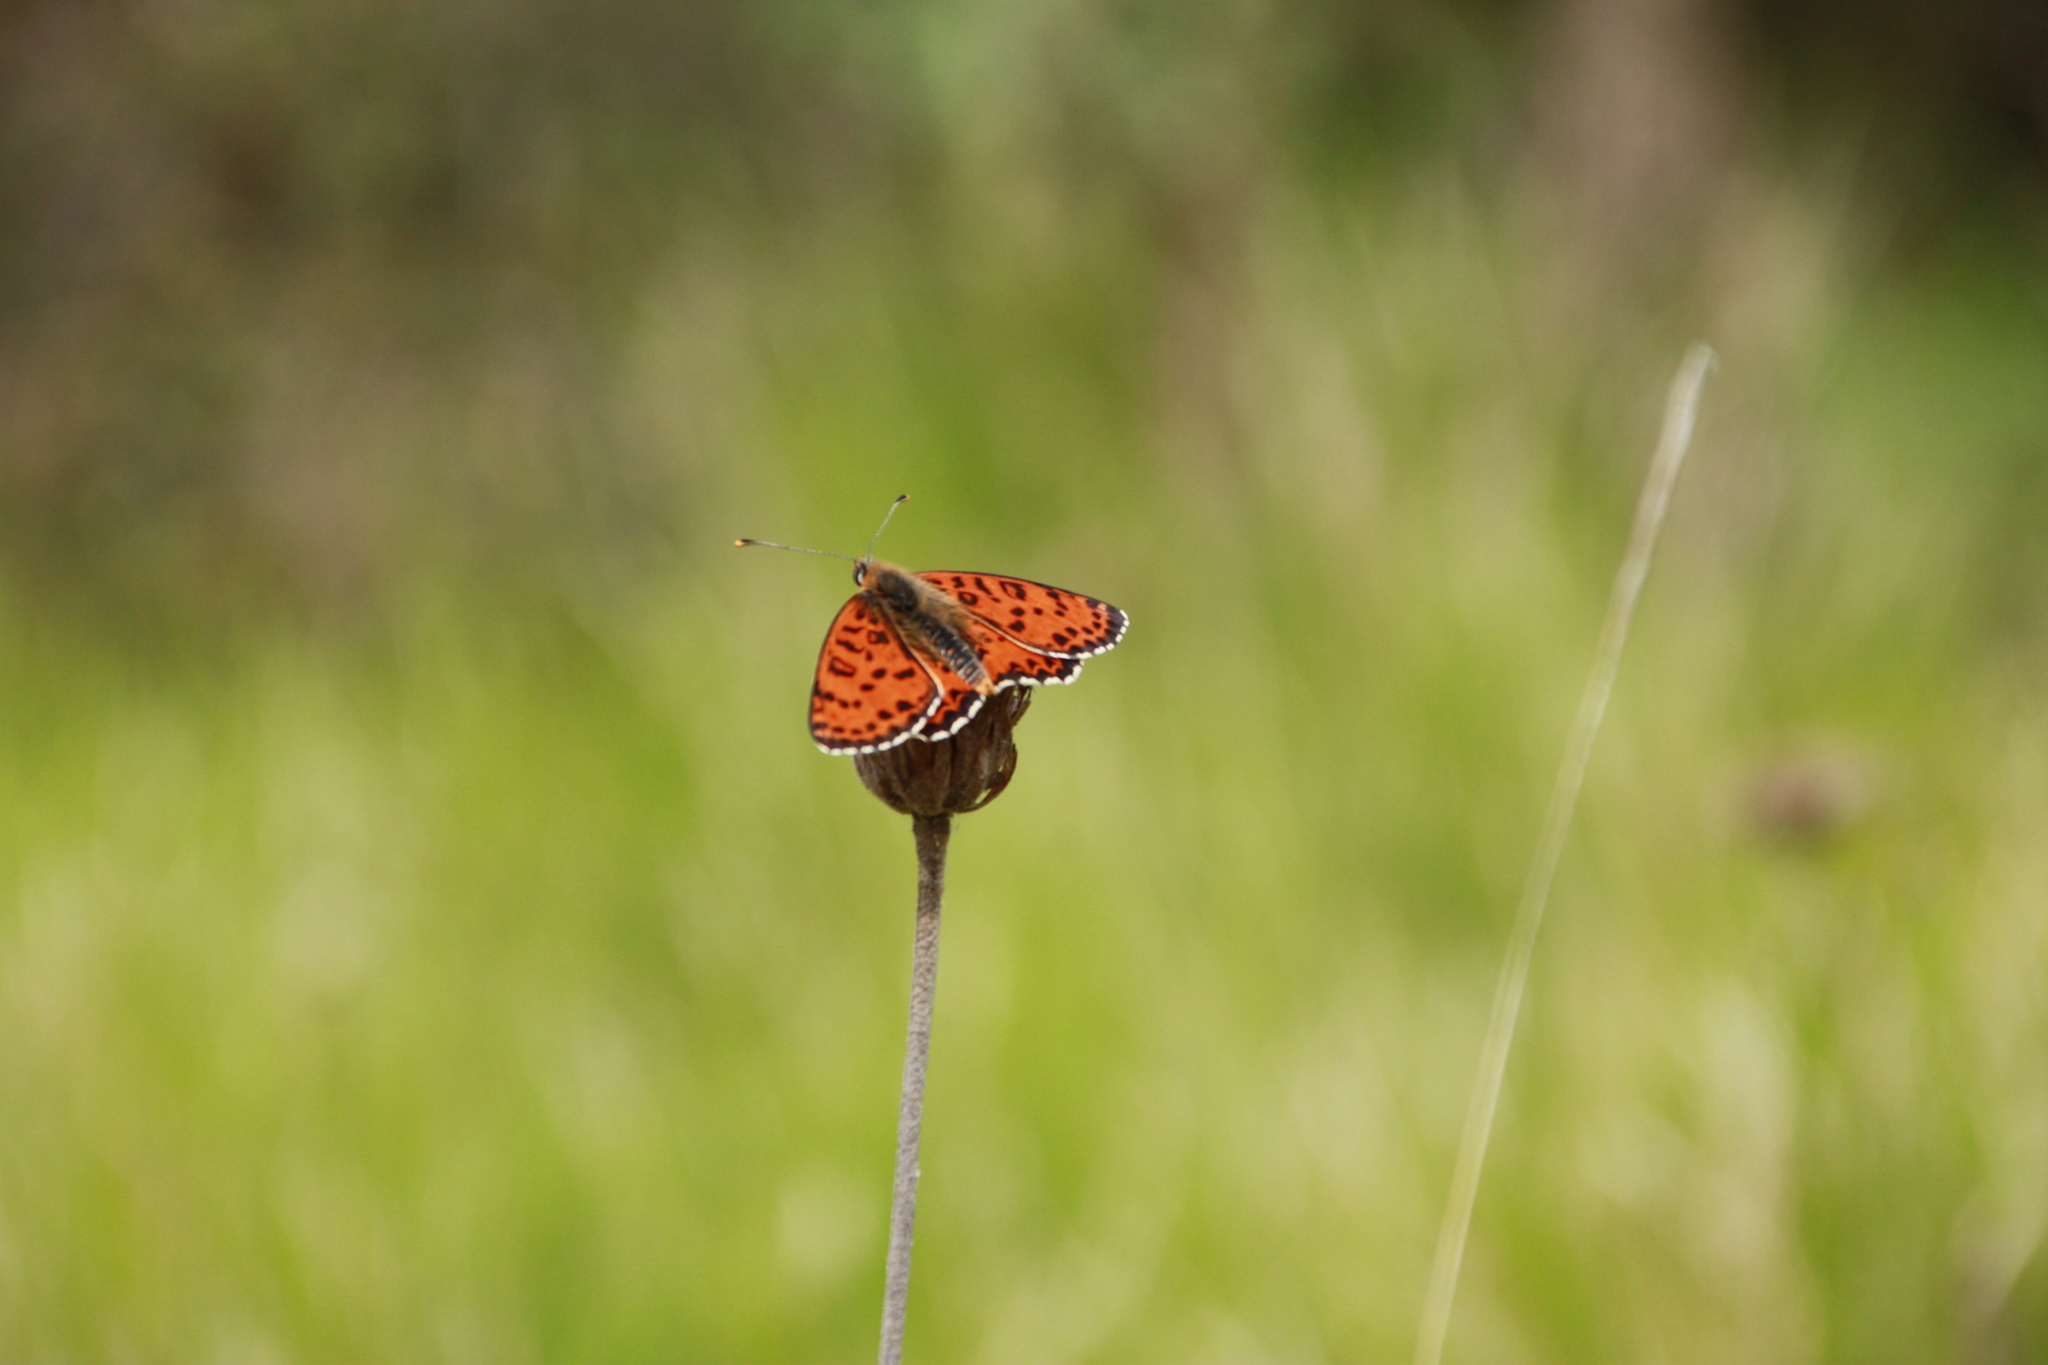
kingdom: Animalia
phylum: Arthropoda
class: Insecta
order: Lepidoptera
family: Nymphalidae
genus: Melitaea
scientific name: Melitaea didyma
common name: Spotted fritillary
